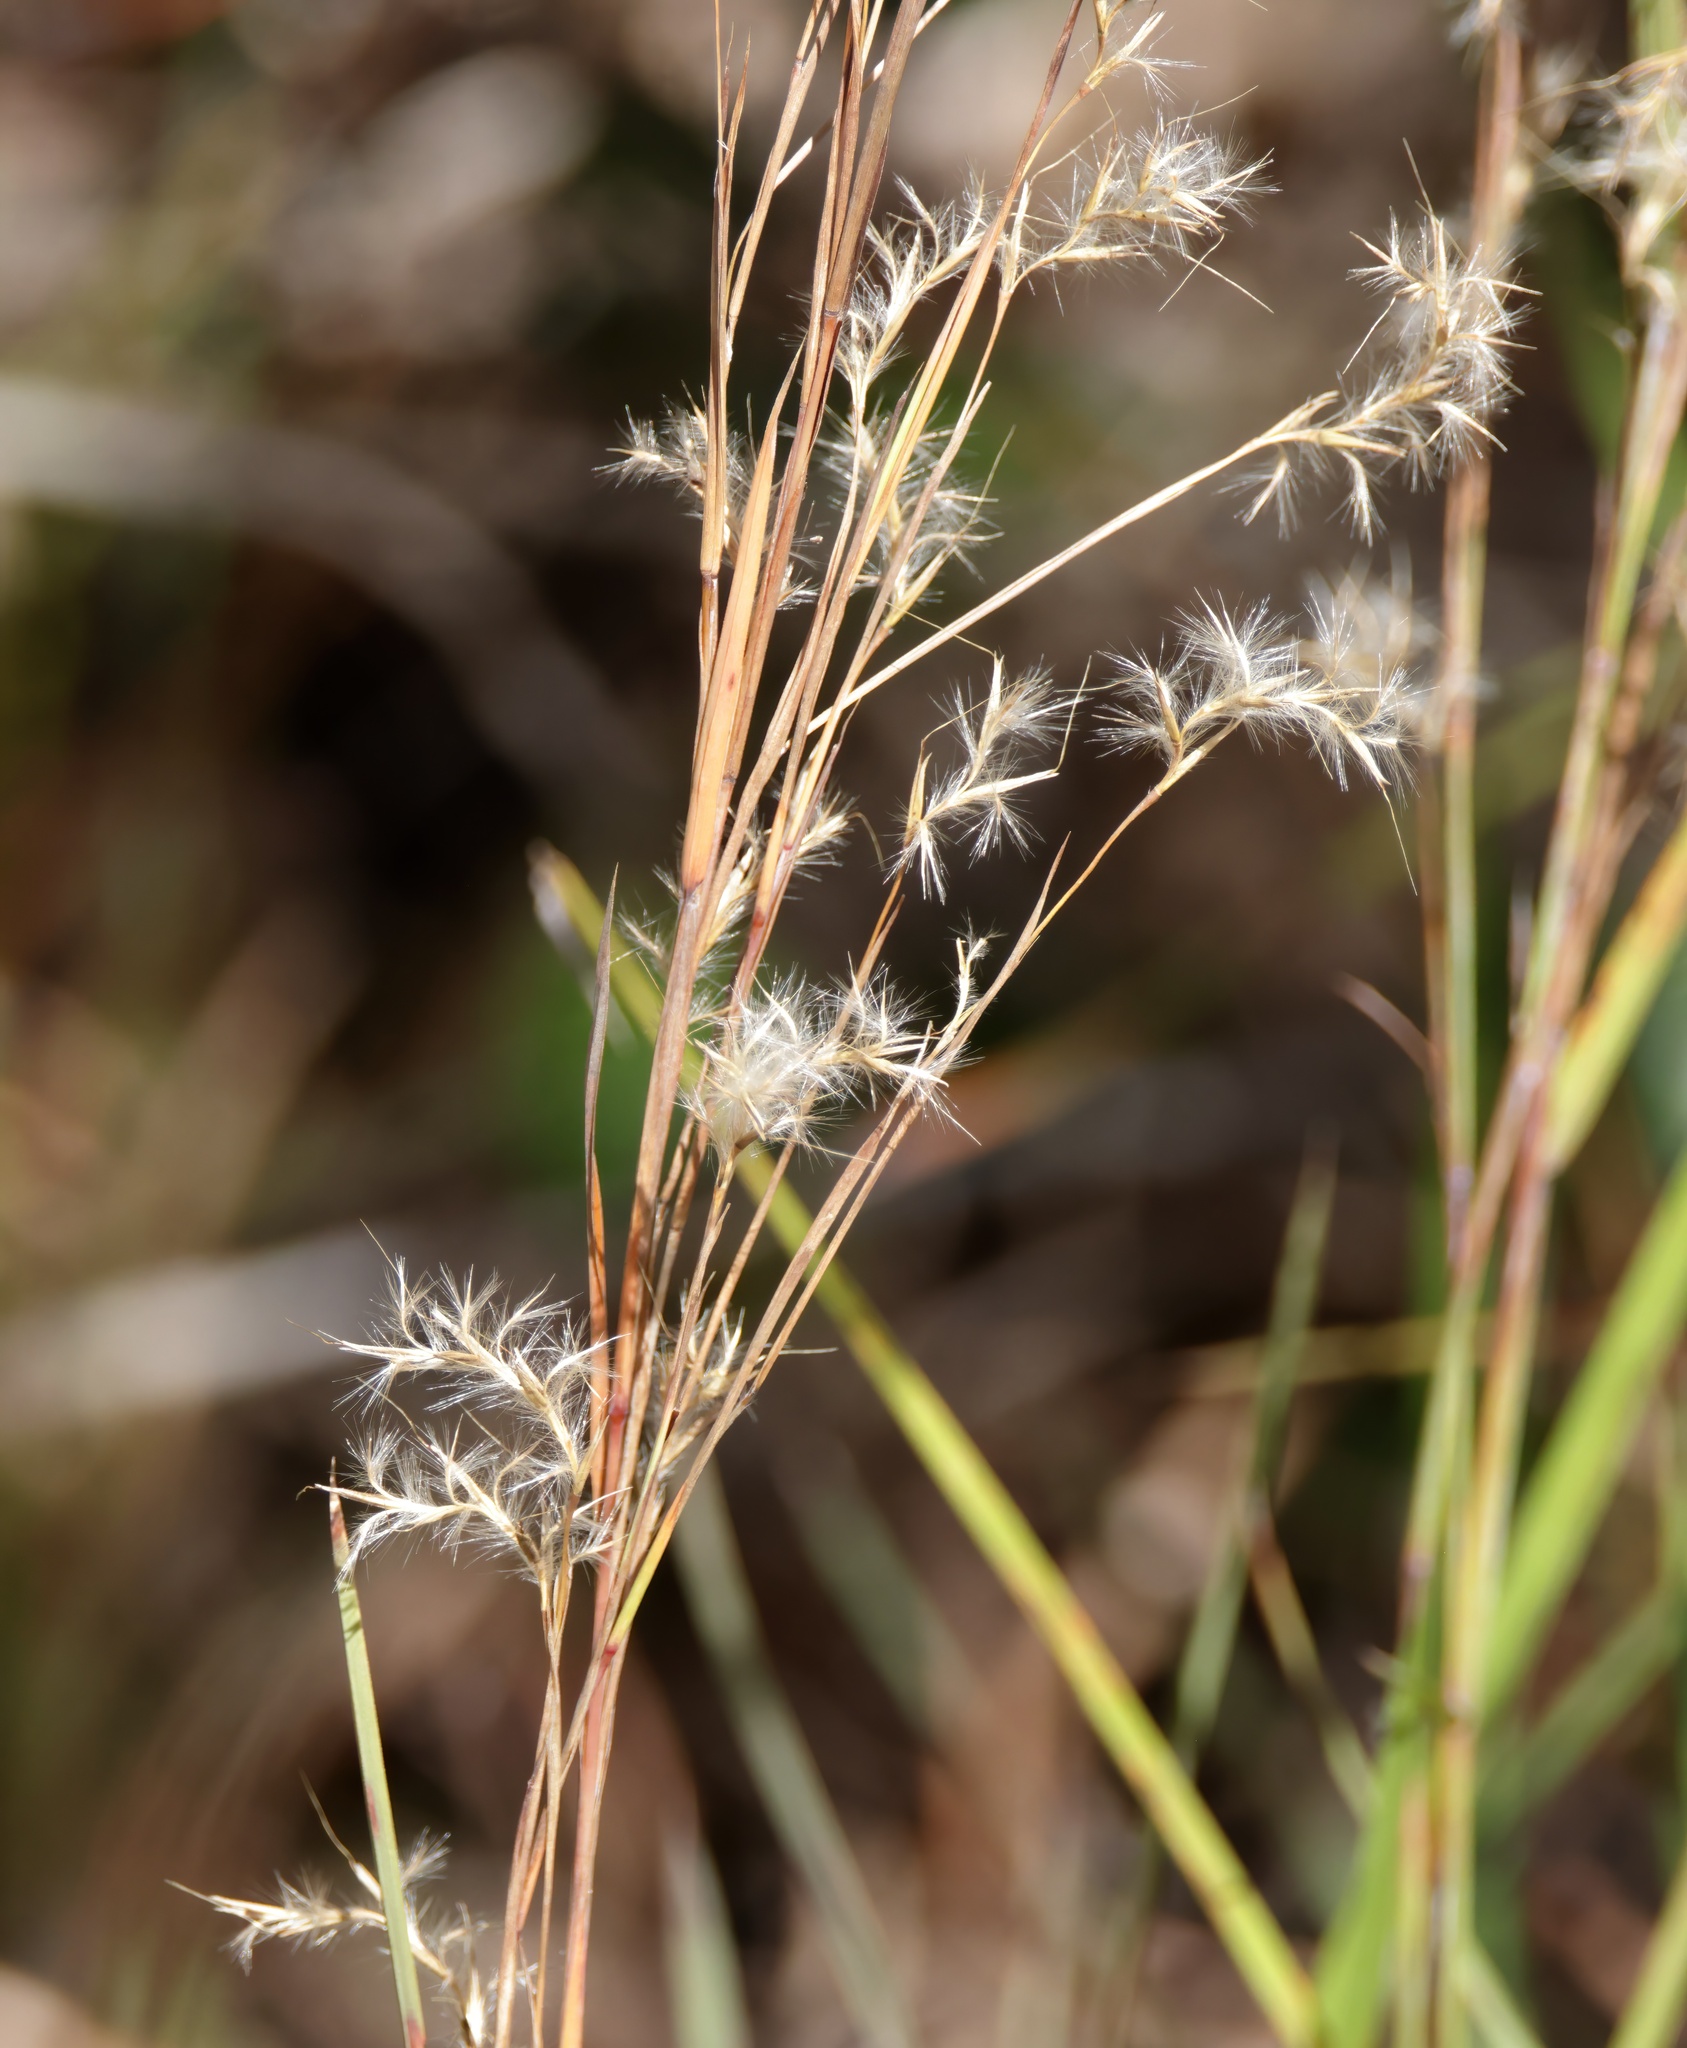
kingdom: Plantae
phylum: Tracheophyta
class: Liliopsida
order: Poales
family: Poaceae
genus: Schizachyrium
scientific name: Schizachyrium scoparium
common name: Little bluestem
